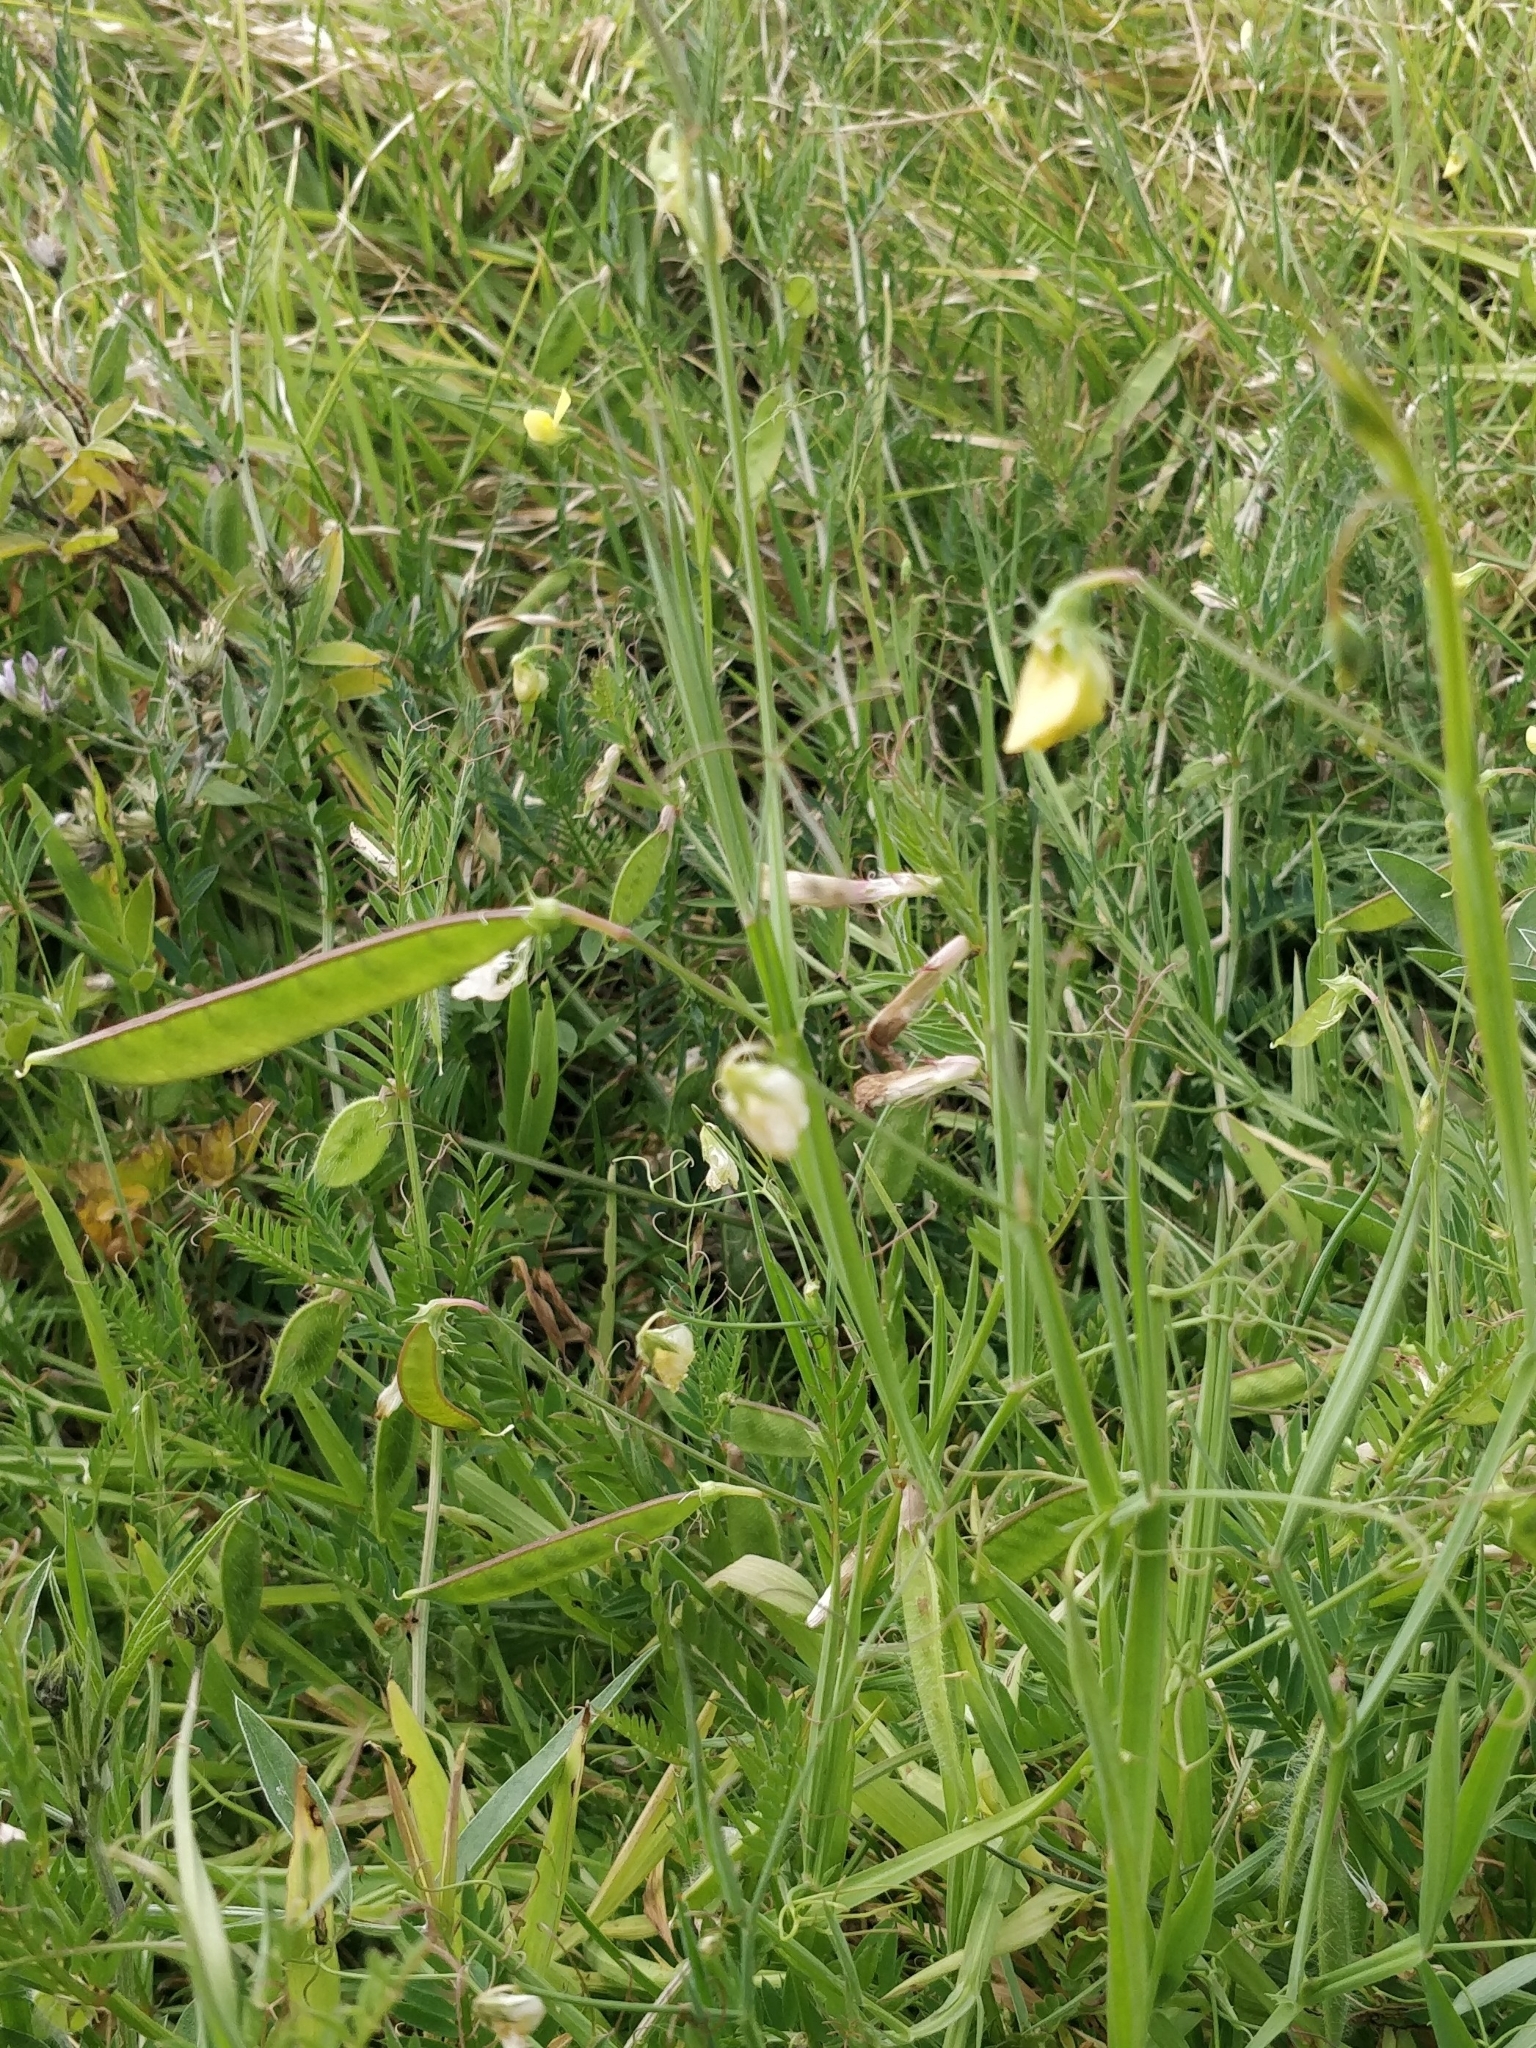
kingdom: Plantae
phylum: Tracheophyta
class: Magnoliopsida
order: Fabales
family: Fabaceae
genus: Lathyrus
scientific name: Lathyrus annuus
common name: Fodder pea
